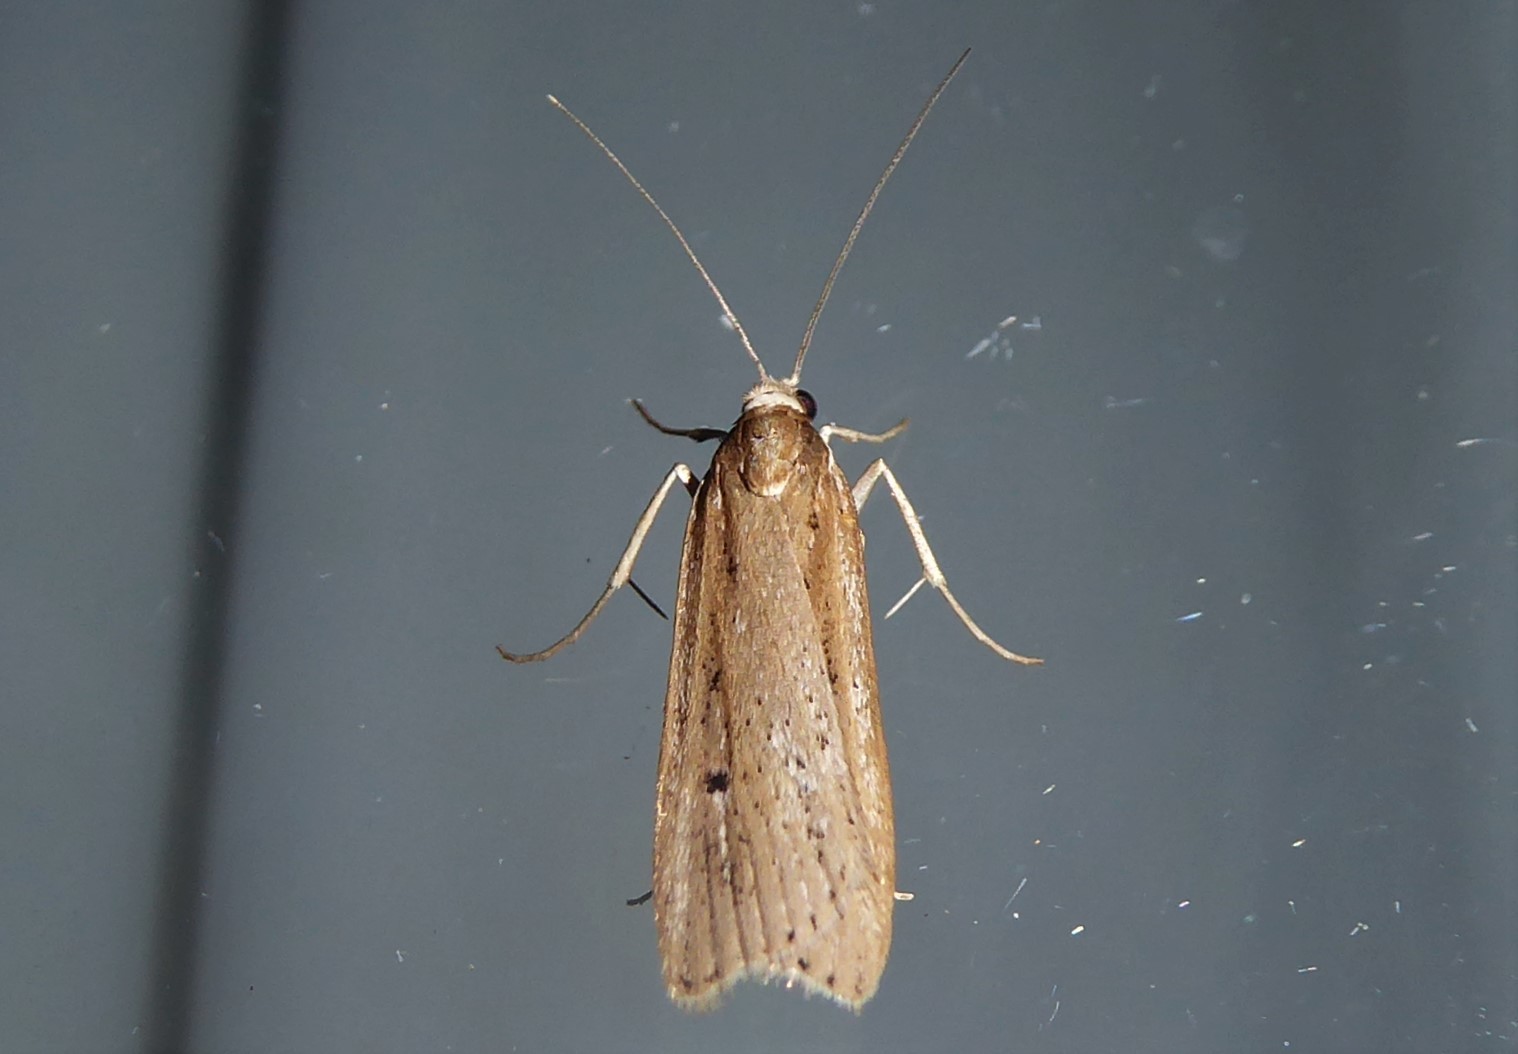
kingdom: Animalia
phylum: Arthropoda
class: Insecta
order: Lepidoptera
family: Crambidae
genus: Eudonia
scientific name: Eudonia sabulosella
